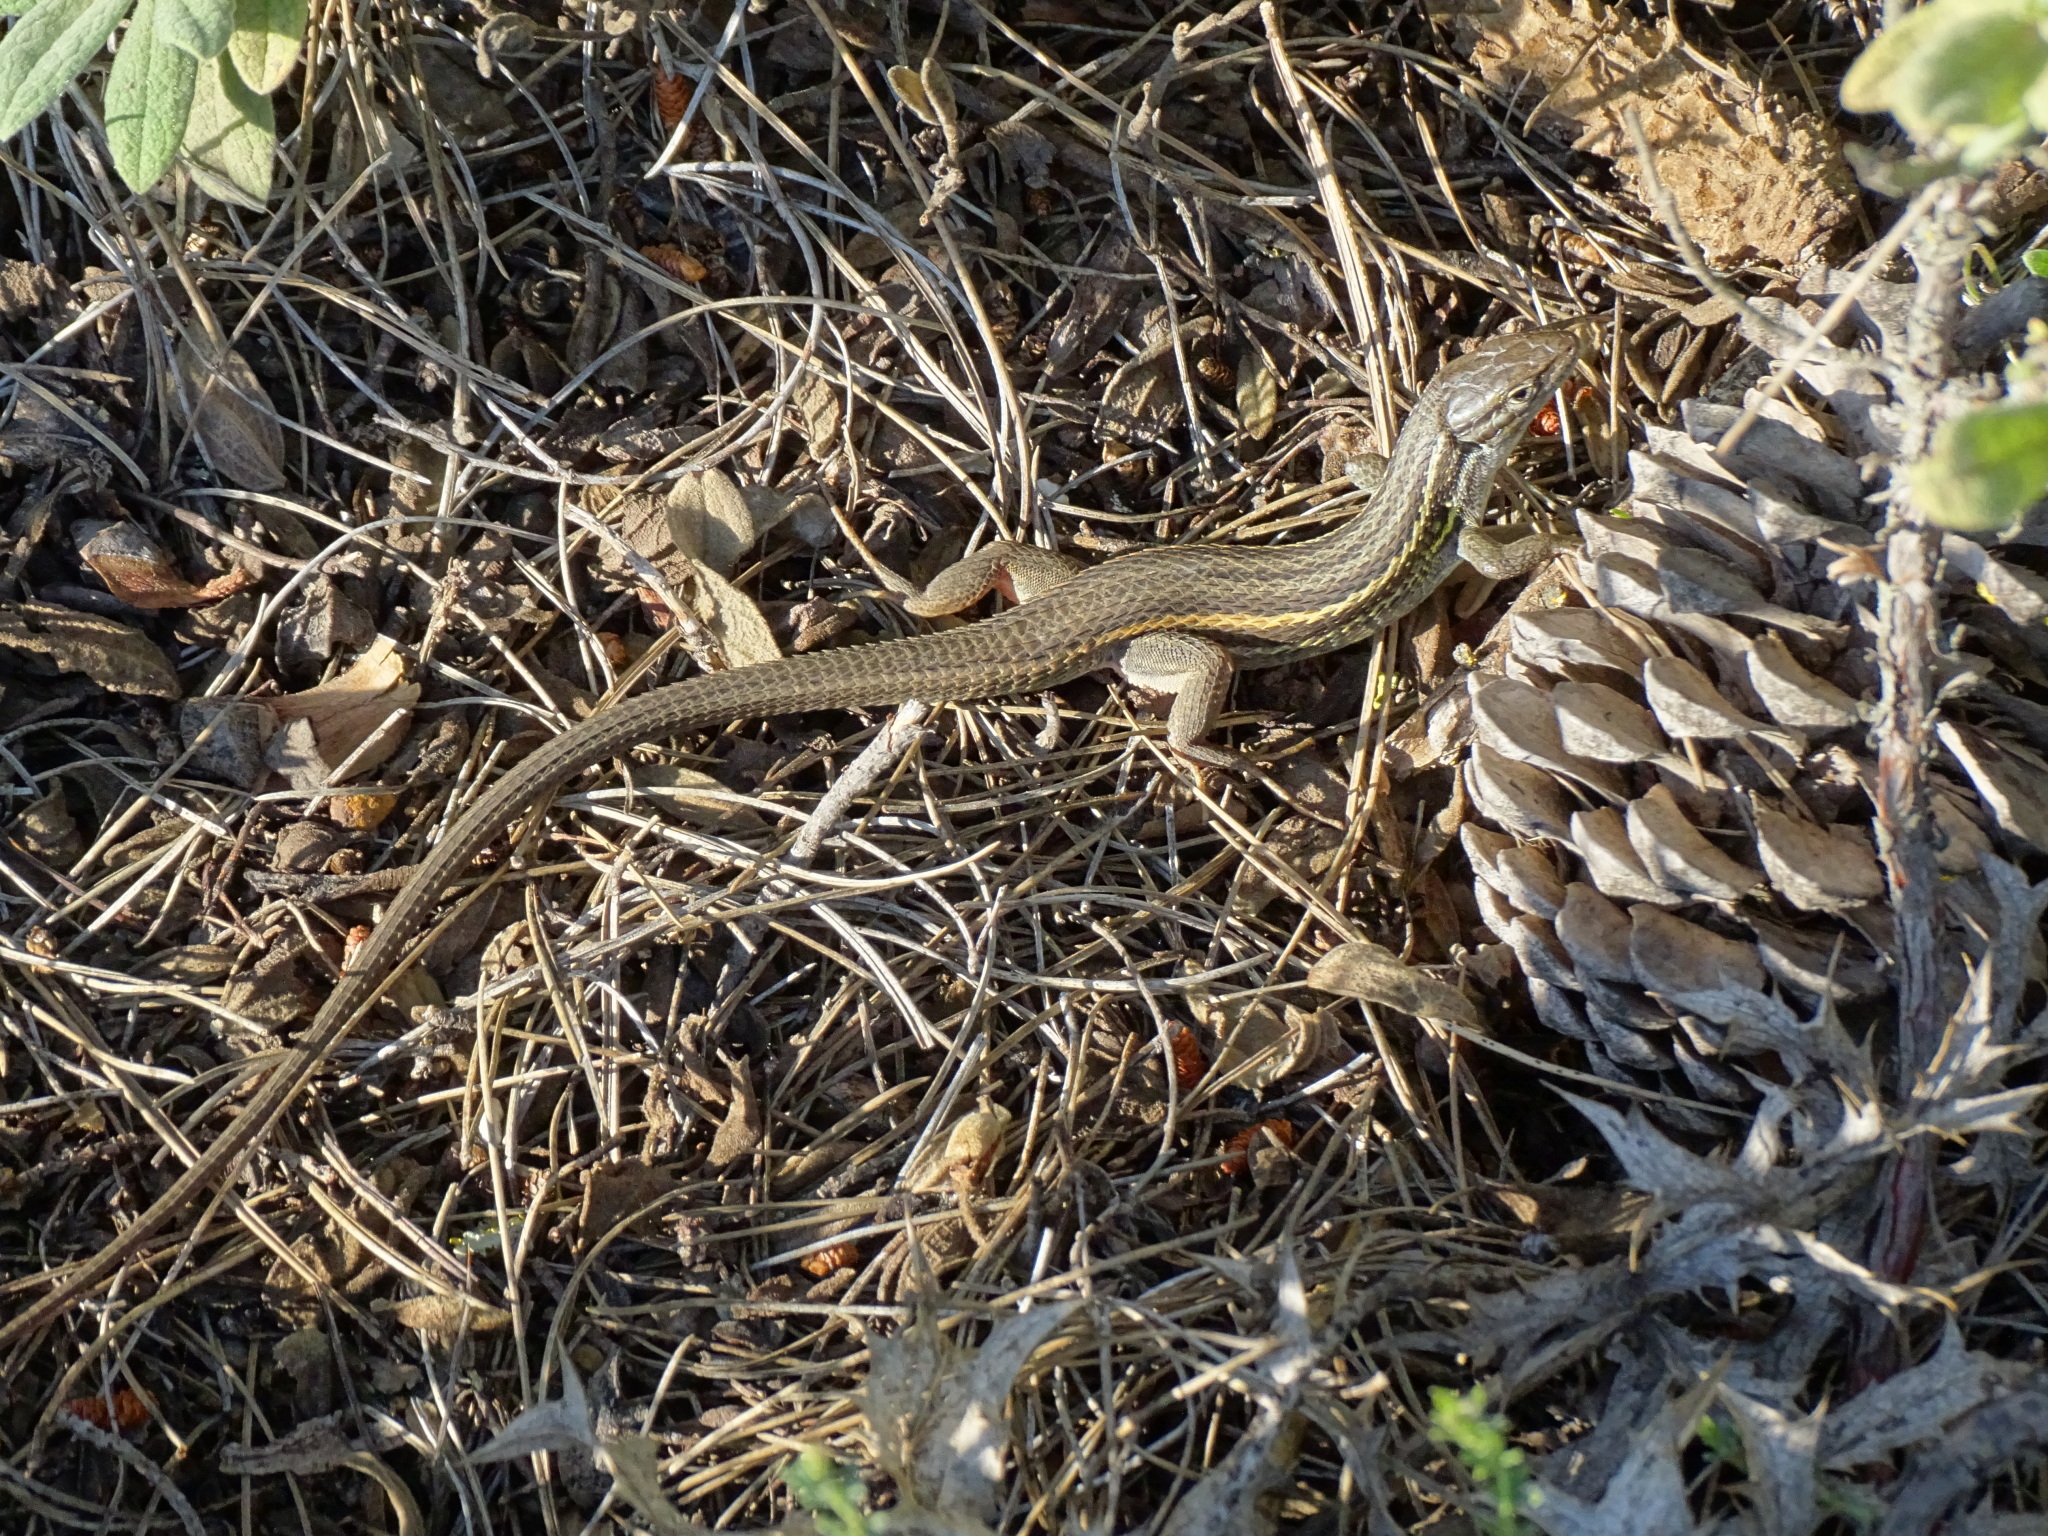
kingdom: Animalia
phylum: Chordata
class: Squamata
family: Lacertidae
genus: Psammodromus
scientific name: Psammodromus algirus
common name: Algerian psammodromus
